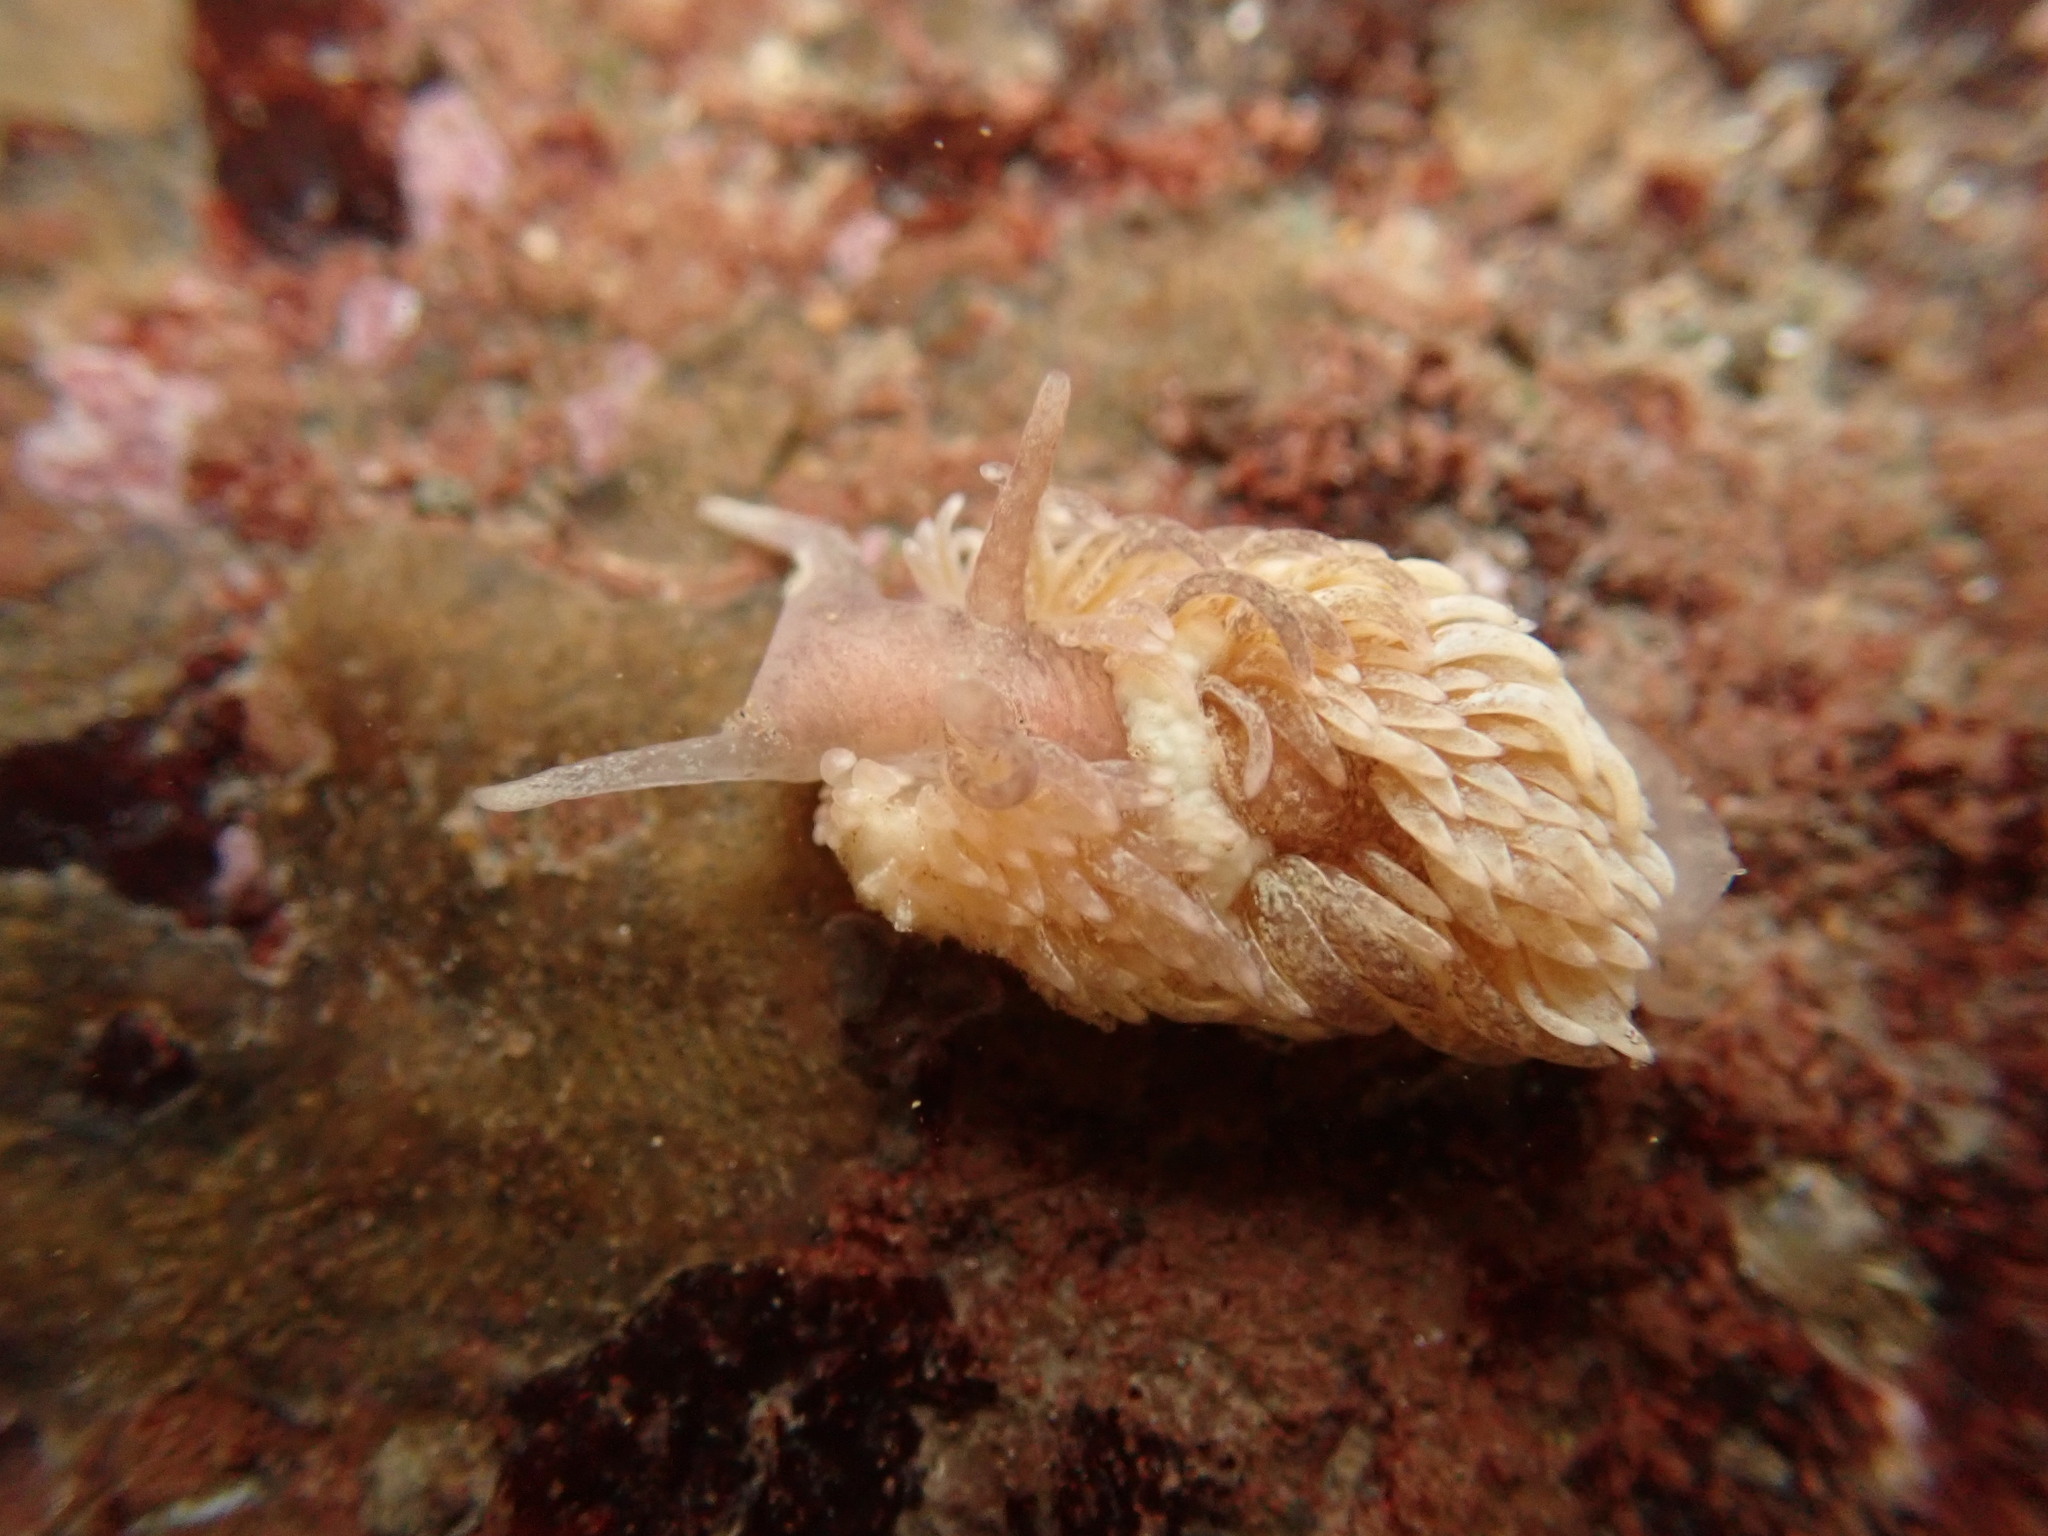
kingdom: Animalia
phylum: Mollusca
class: Gastropoda
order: Nudibranchia
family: Aeolidiidae
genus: Aeolidia
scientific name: Aeolidia papillosa
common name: Common grey sea slug
